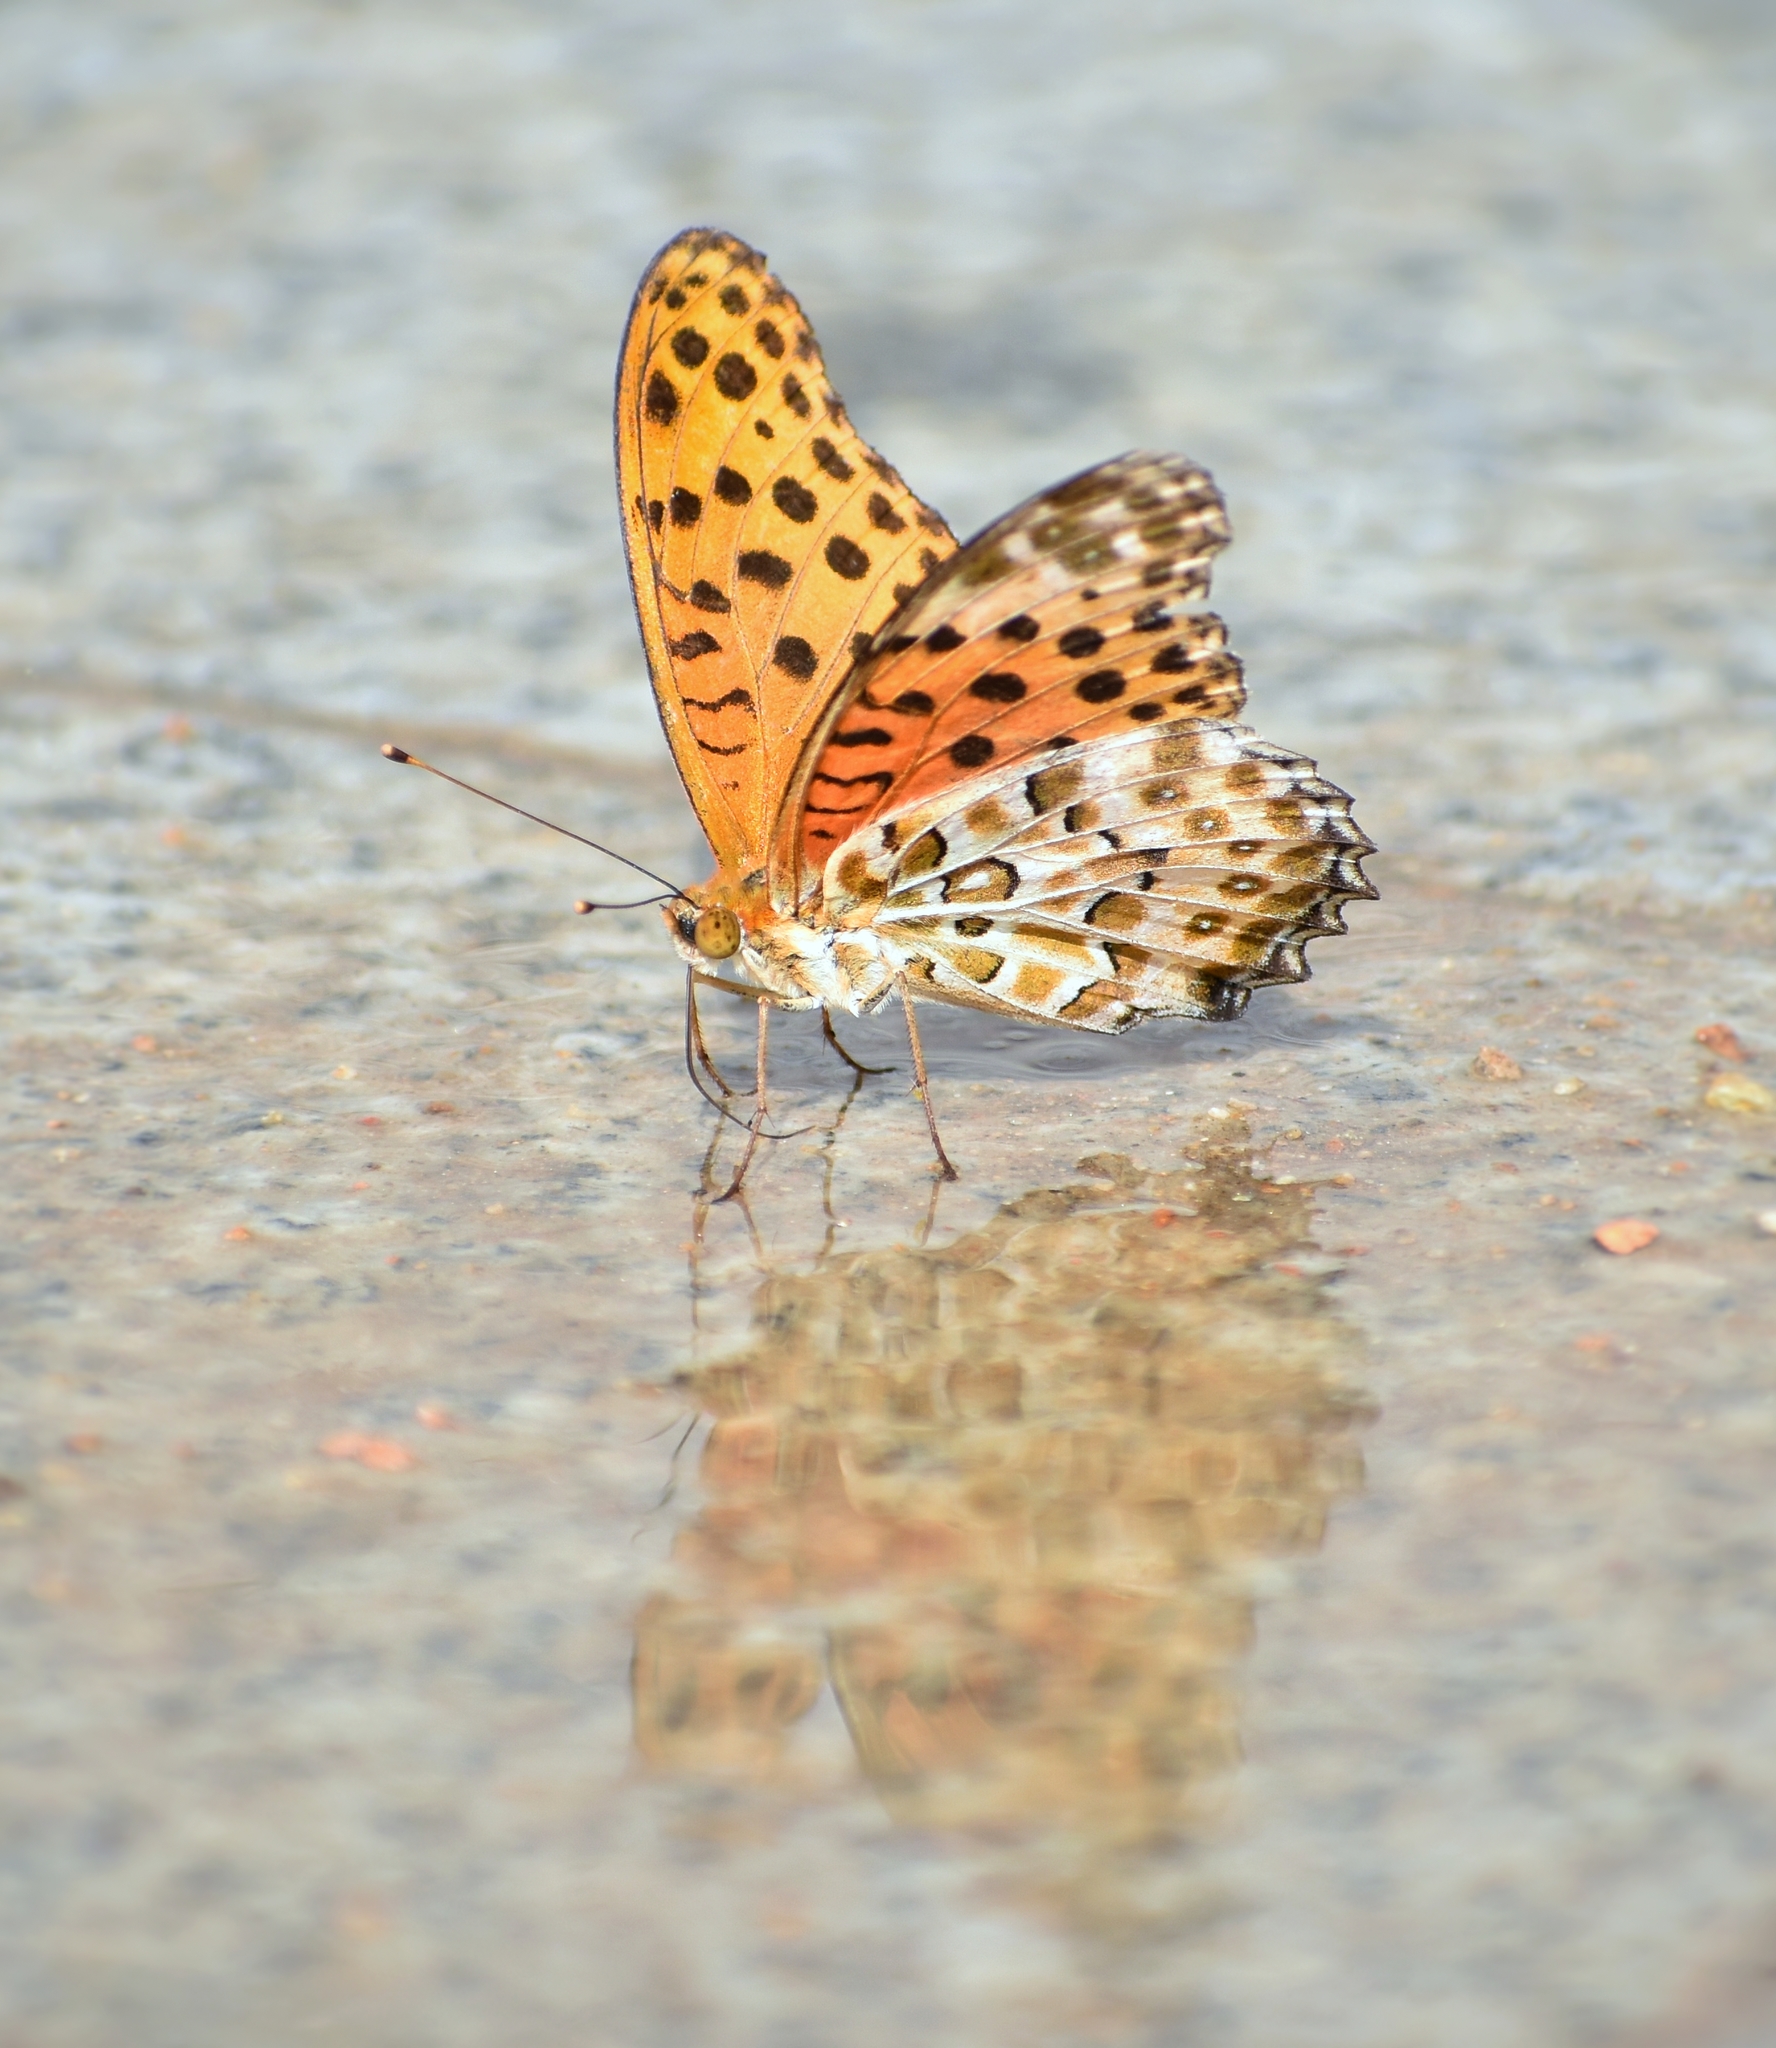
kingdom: Animalia
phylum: Arthropoda
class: Insecta
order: Lepidoptera
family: Nymphalidae
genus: Argynnis
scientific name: Argynnis hyperbius
